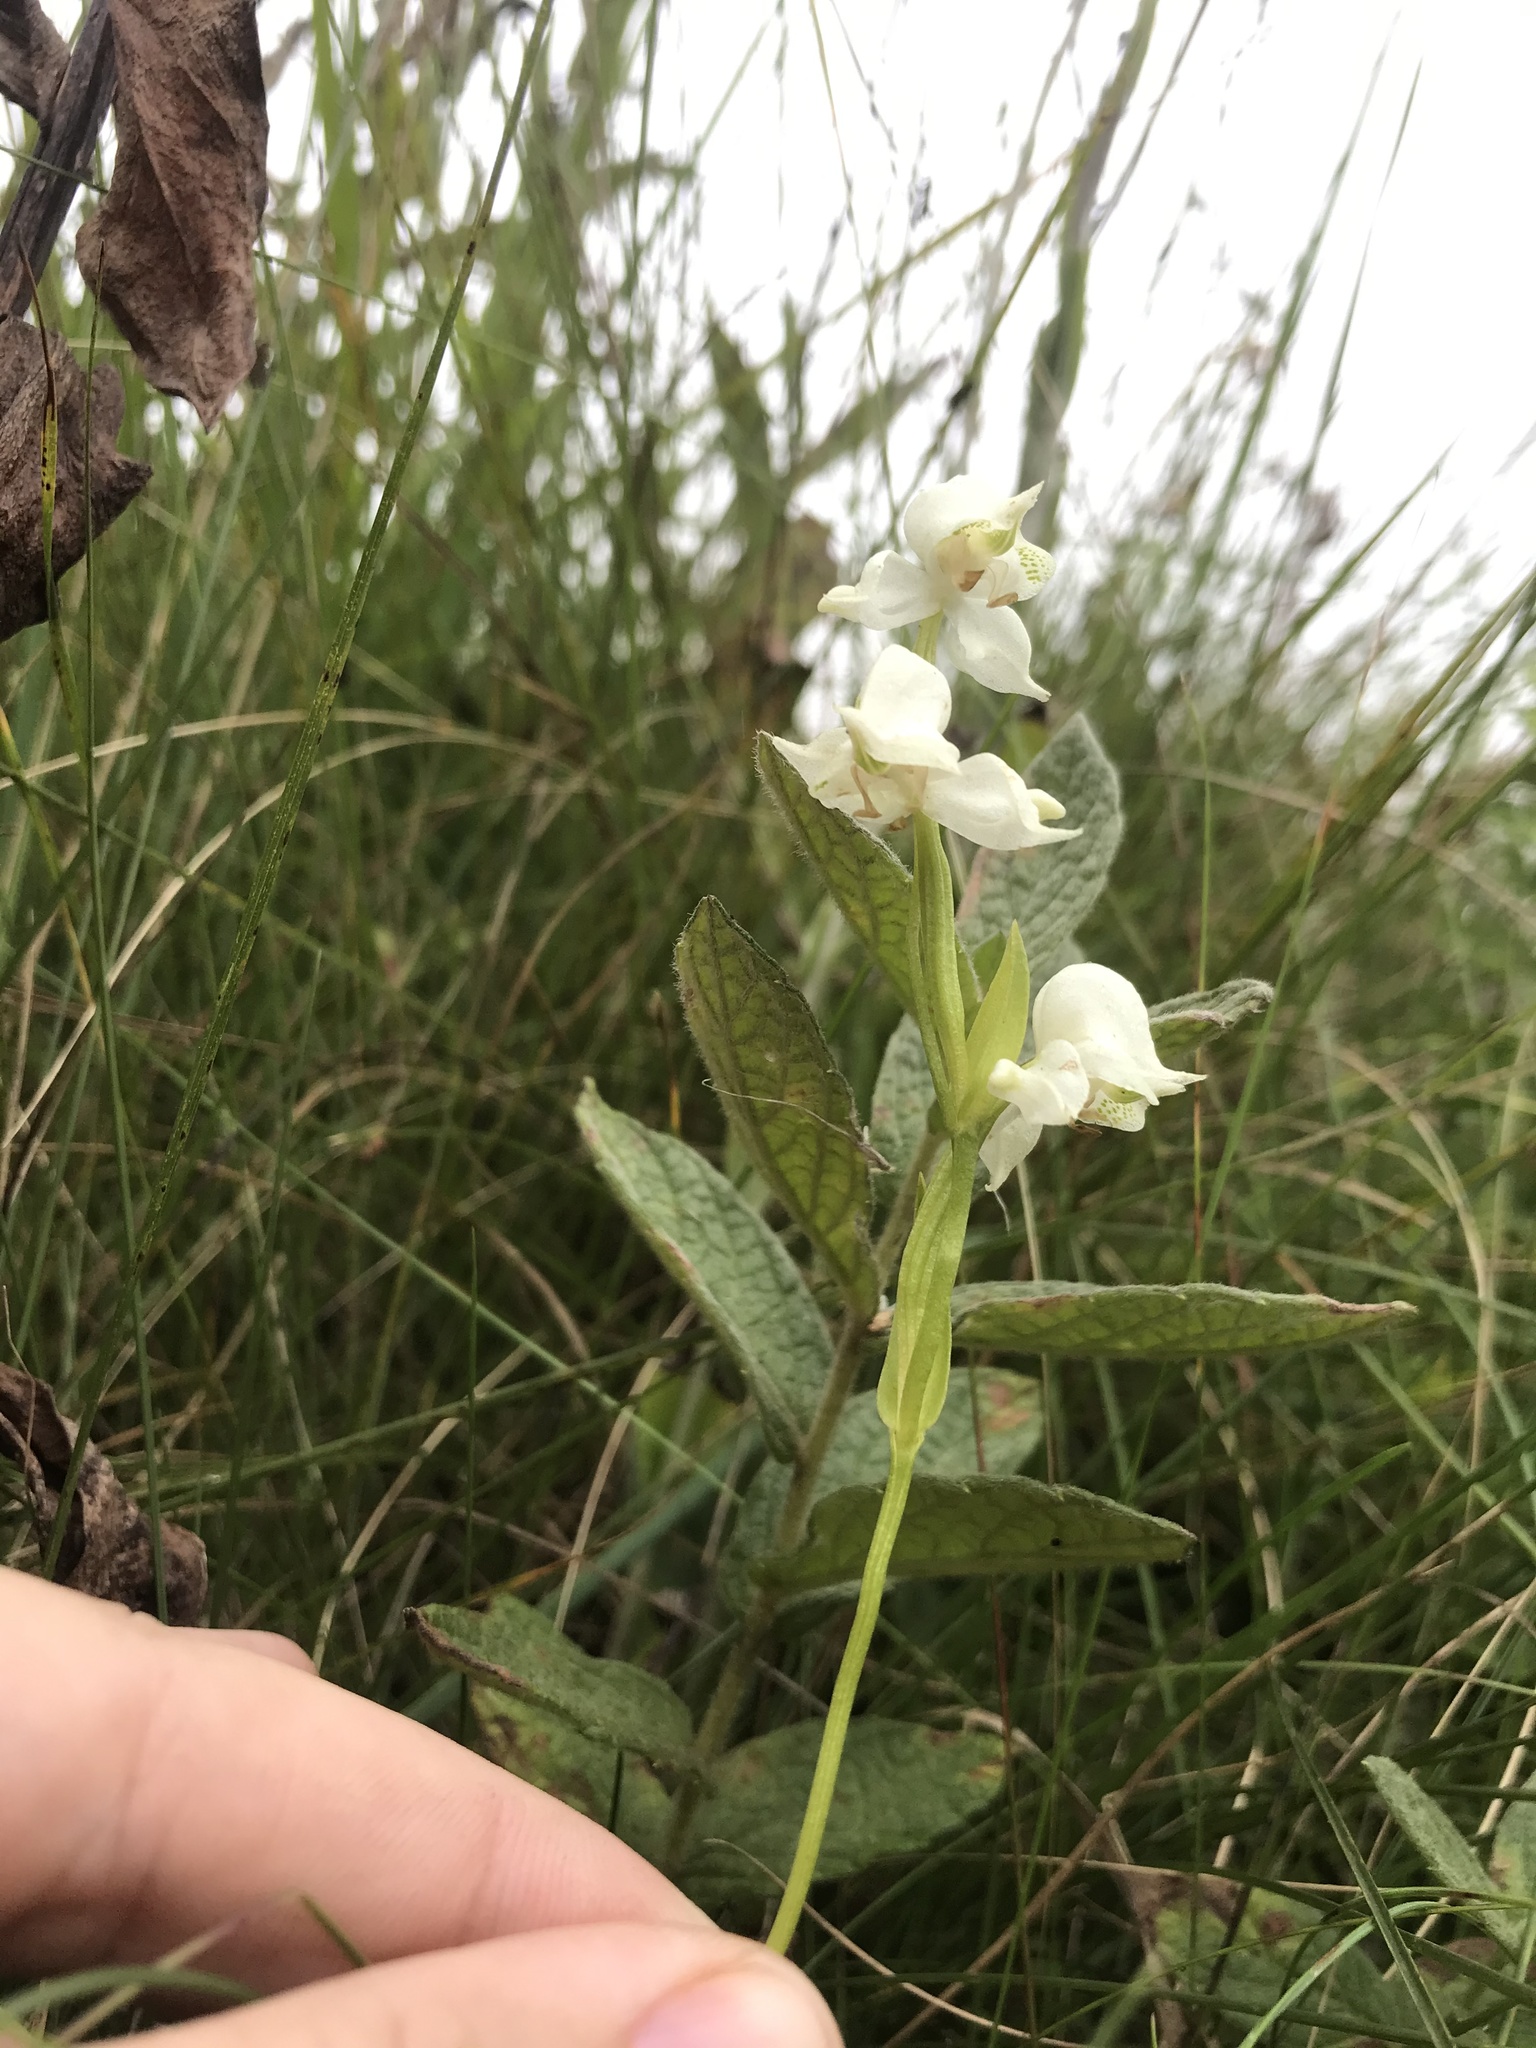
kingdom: Plantae
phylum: Tracheophyta
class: Liliopsida
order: Asparagales
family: Orchidaceae
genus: Disperis
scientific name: Disperis wealei
